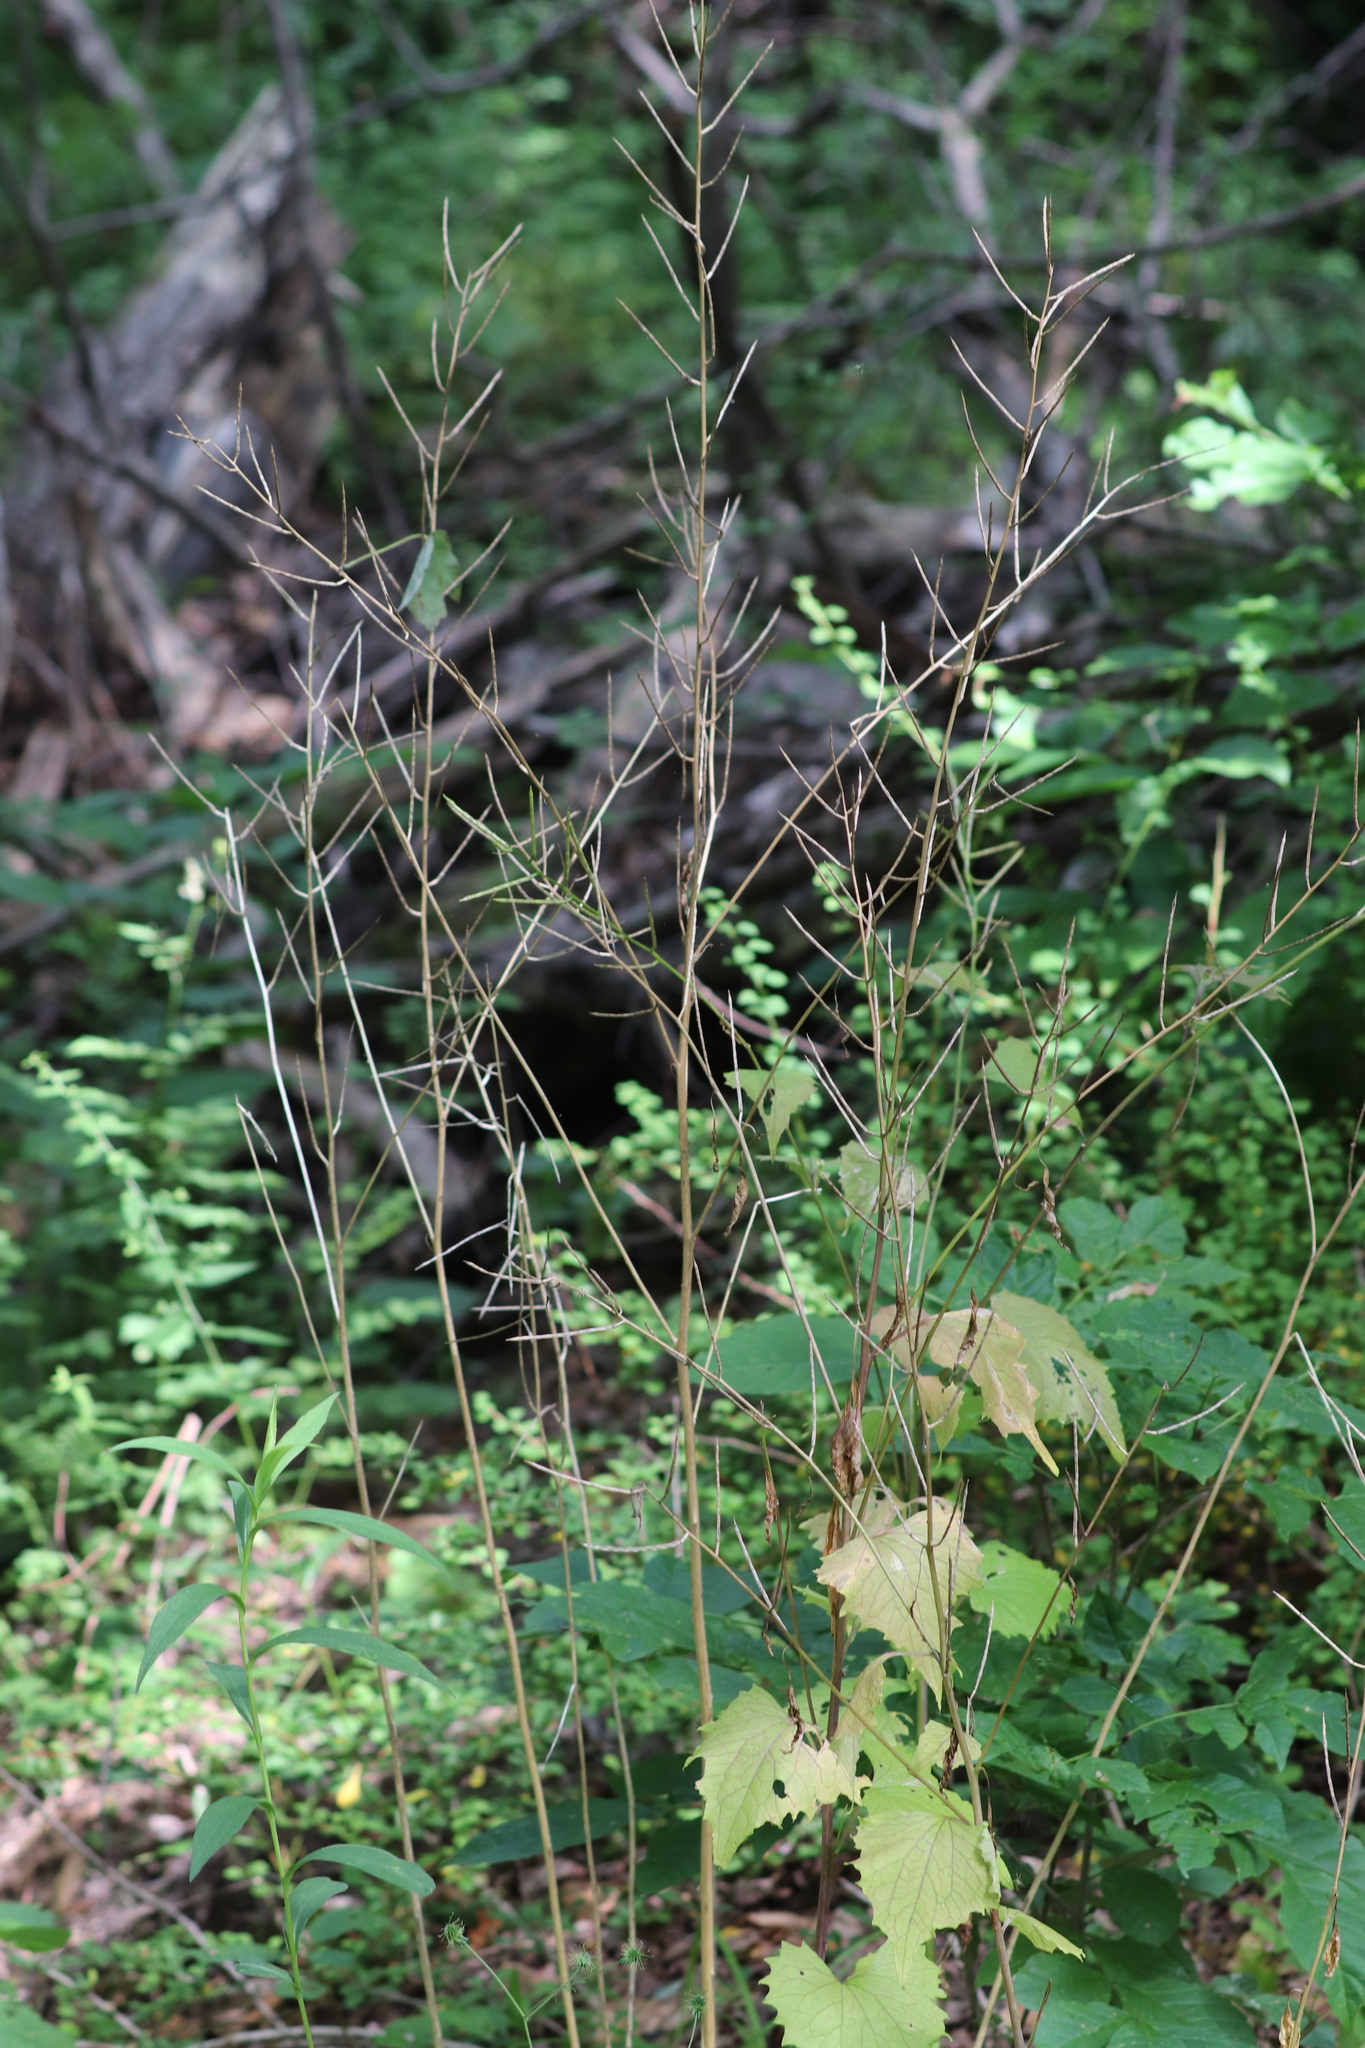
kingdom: Plantae
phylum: Tracheophyta
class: Magnoliopsida
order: Brassicales
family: Brassicaceae
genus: Alliaria
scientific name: Alliaria petiolata
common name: Garlic mustard
